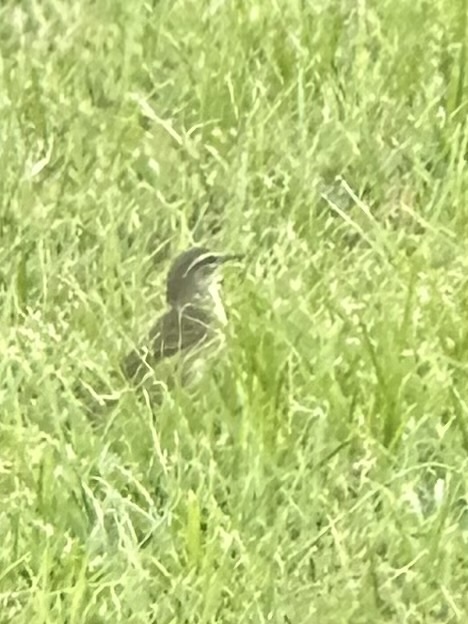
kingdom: Animalia
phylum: Chordata
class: Aves
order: Passeriformes
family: Parulidae
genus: Setophaga
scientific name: Setophaga palmarum
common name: Palm warbler
